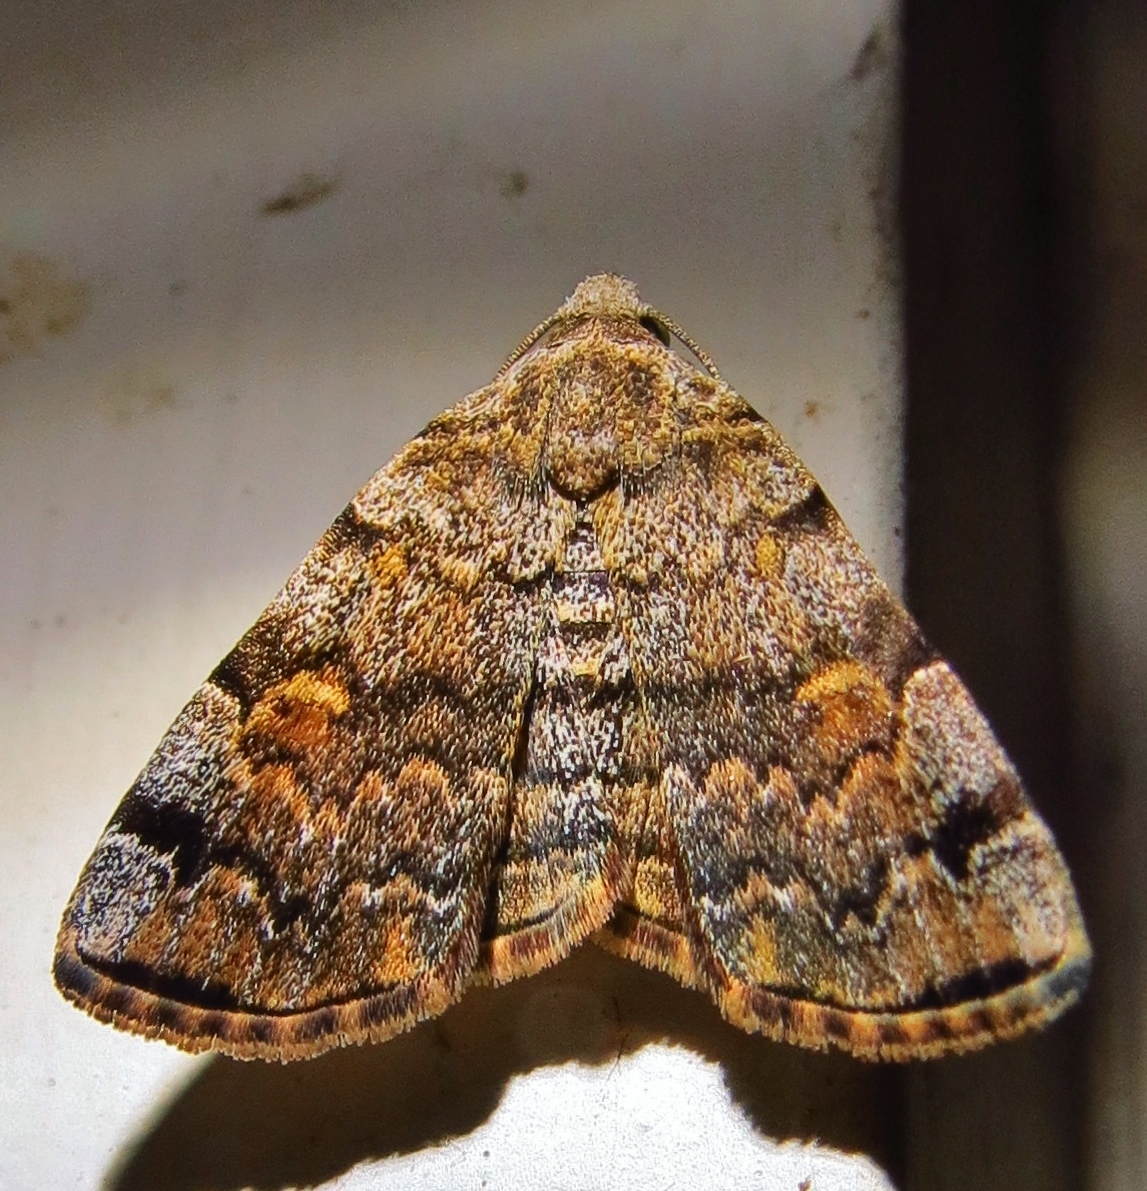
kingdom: Animalia
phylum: Arthropoda
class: Insecta
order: Lepidoptera
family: Erebidae
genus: Idia
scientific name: Idia americalis
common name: American idia moth
